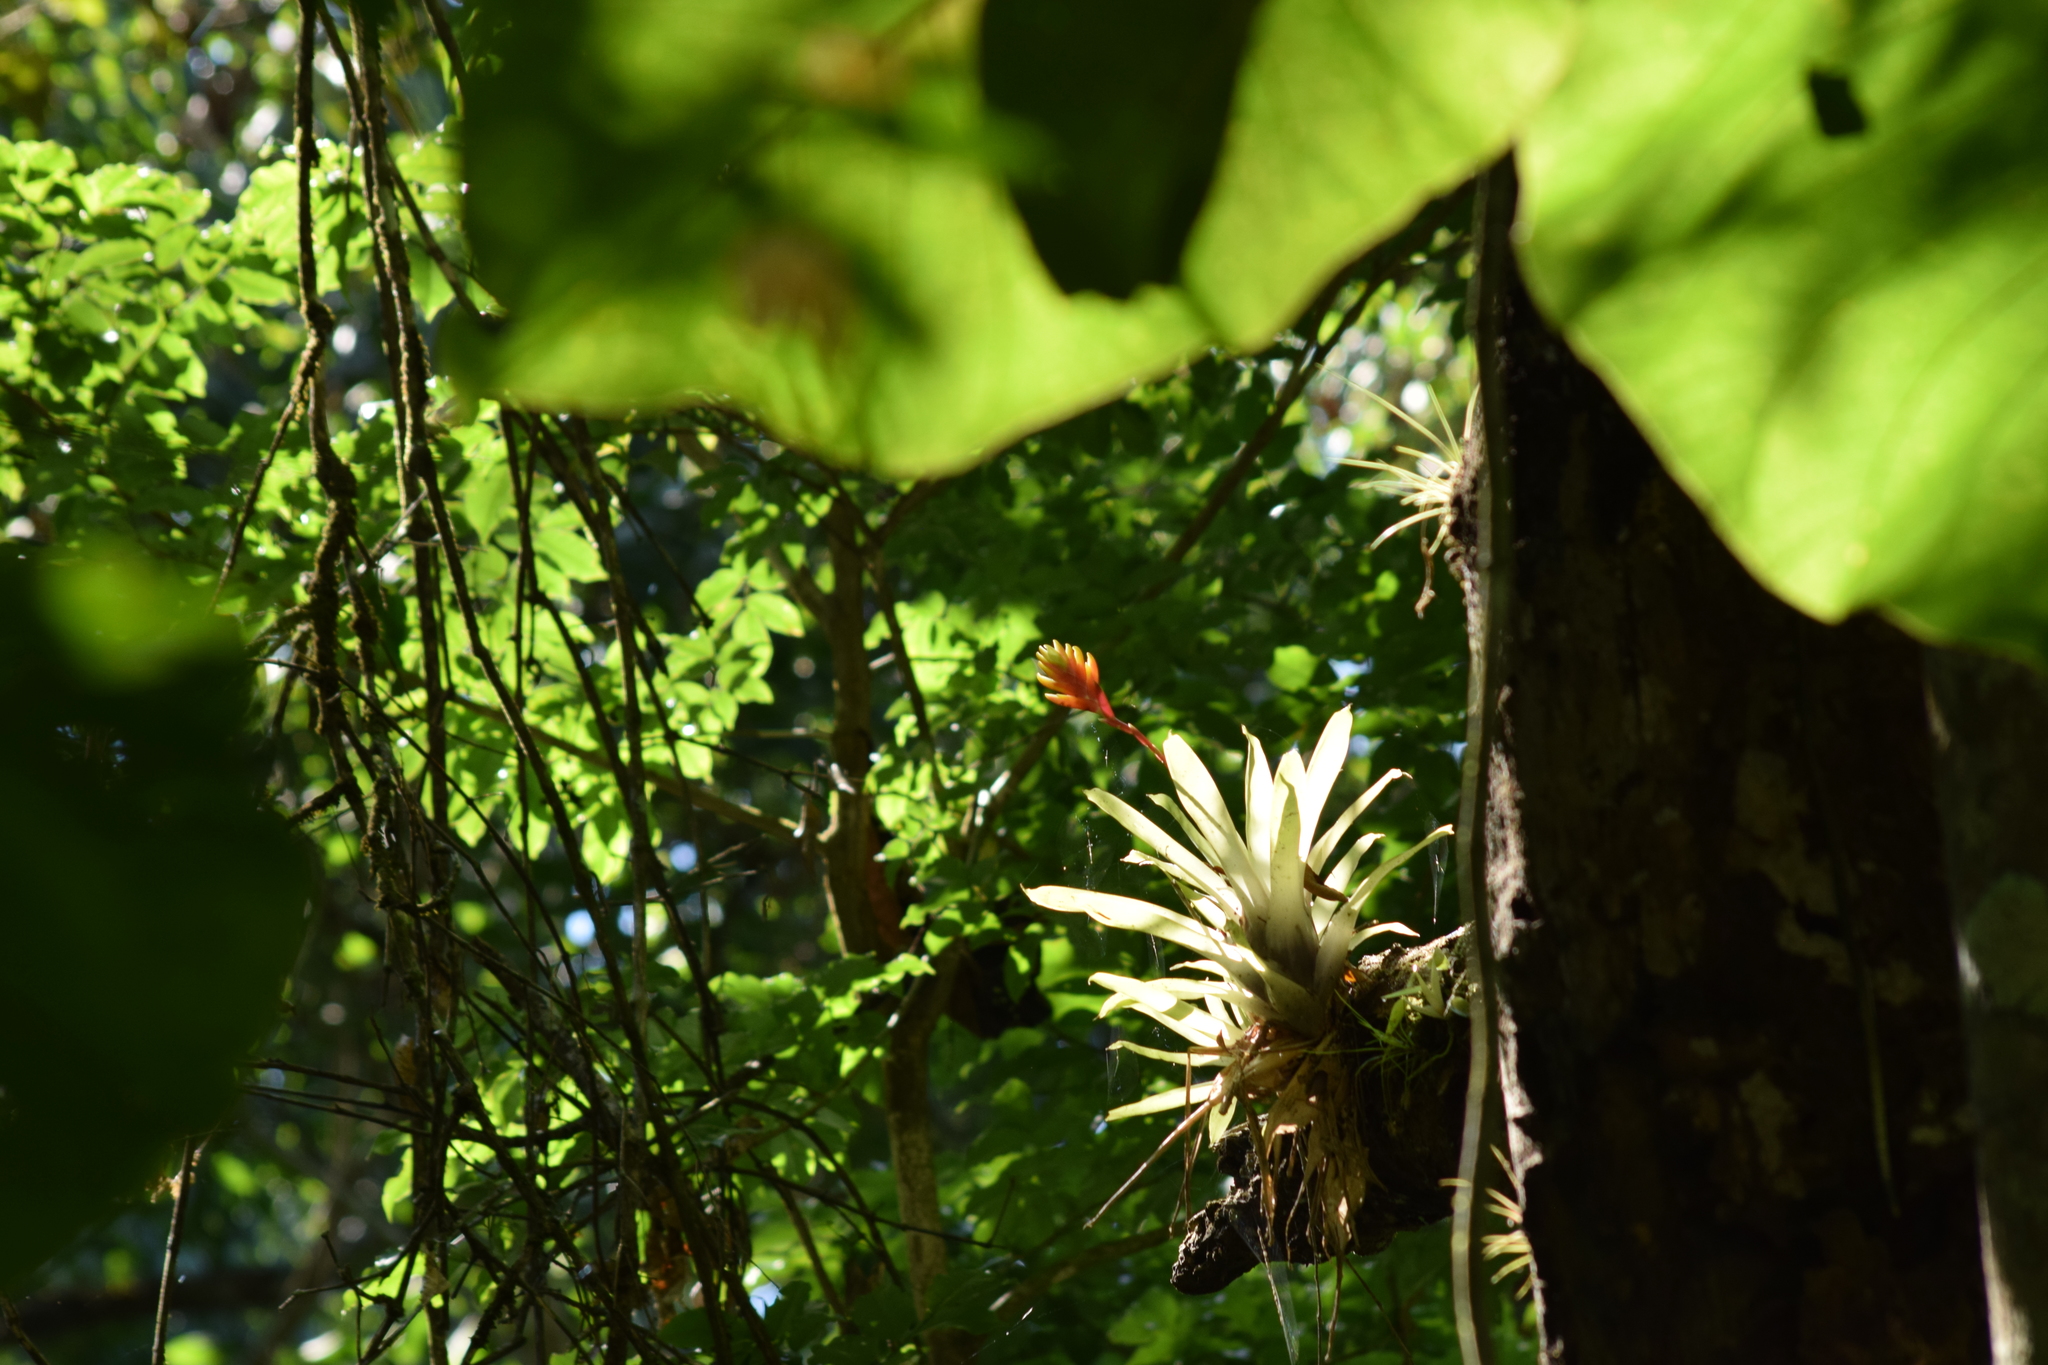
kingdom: Plantae
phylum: Tracheophyta
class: Liliopsida
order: Poales
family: Bromeliaceae
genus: Vriesea
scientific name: Vriesea carinata
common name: Lobster-claws
